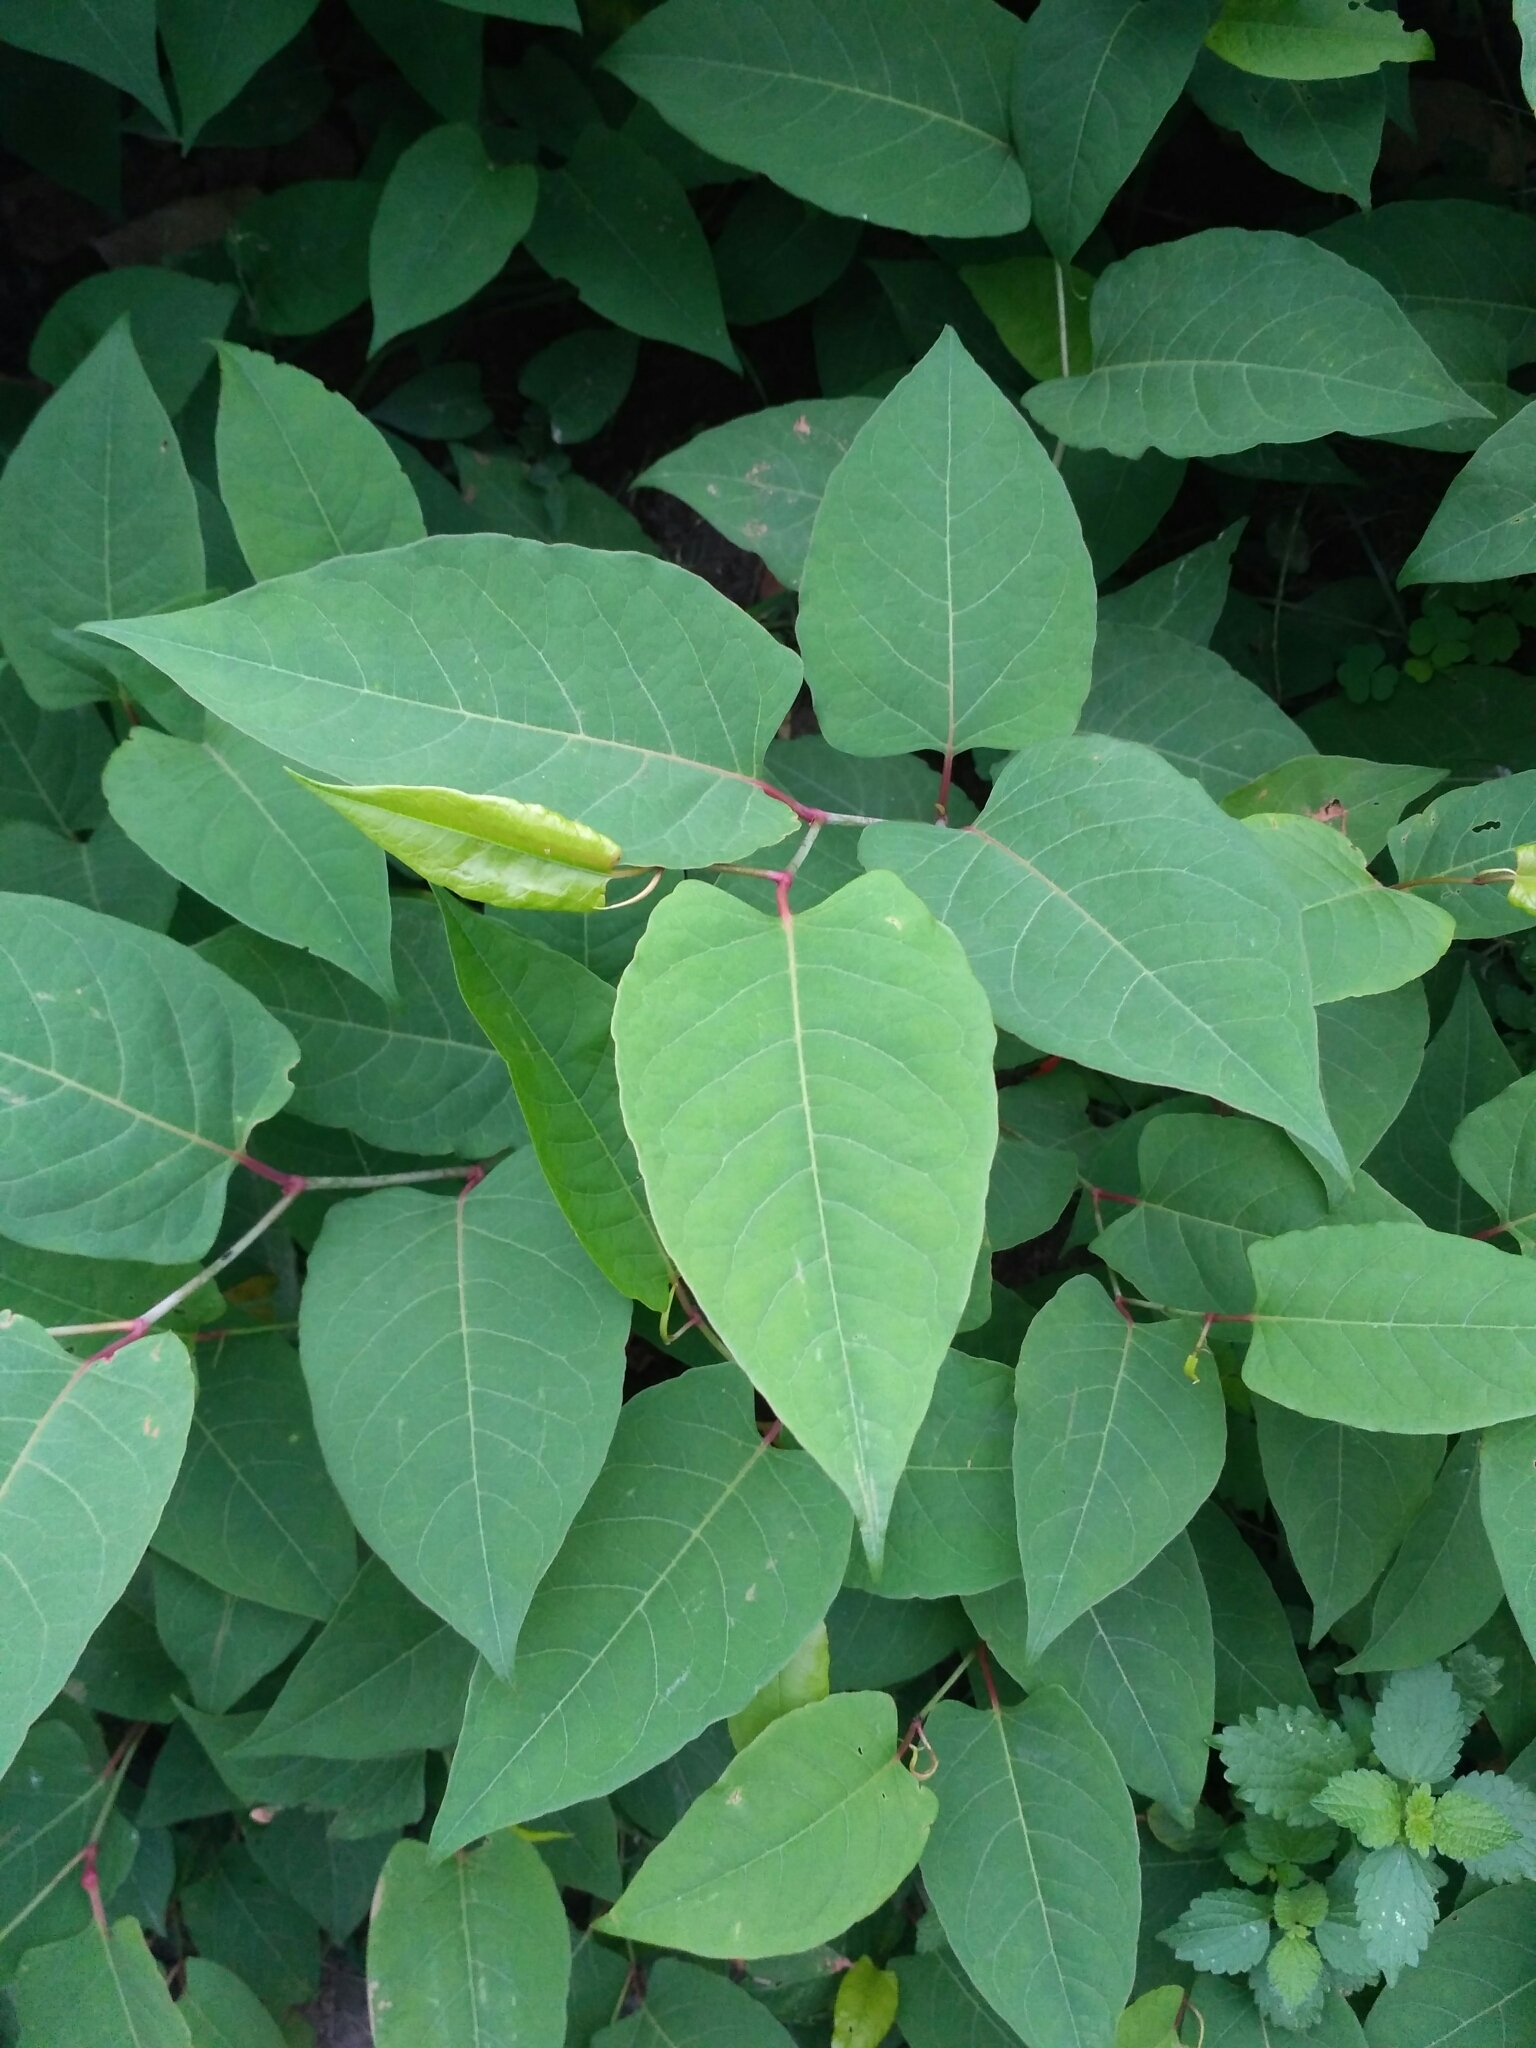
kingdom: Plantae
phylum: Tracheophyta
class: Magnoliopsida
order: Caryophyllales
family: Polygonaceae
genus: Reynoutria
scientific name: Reynoutria bohemica
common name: Bohemian knotweed
